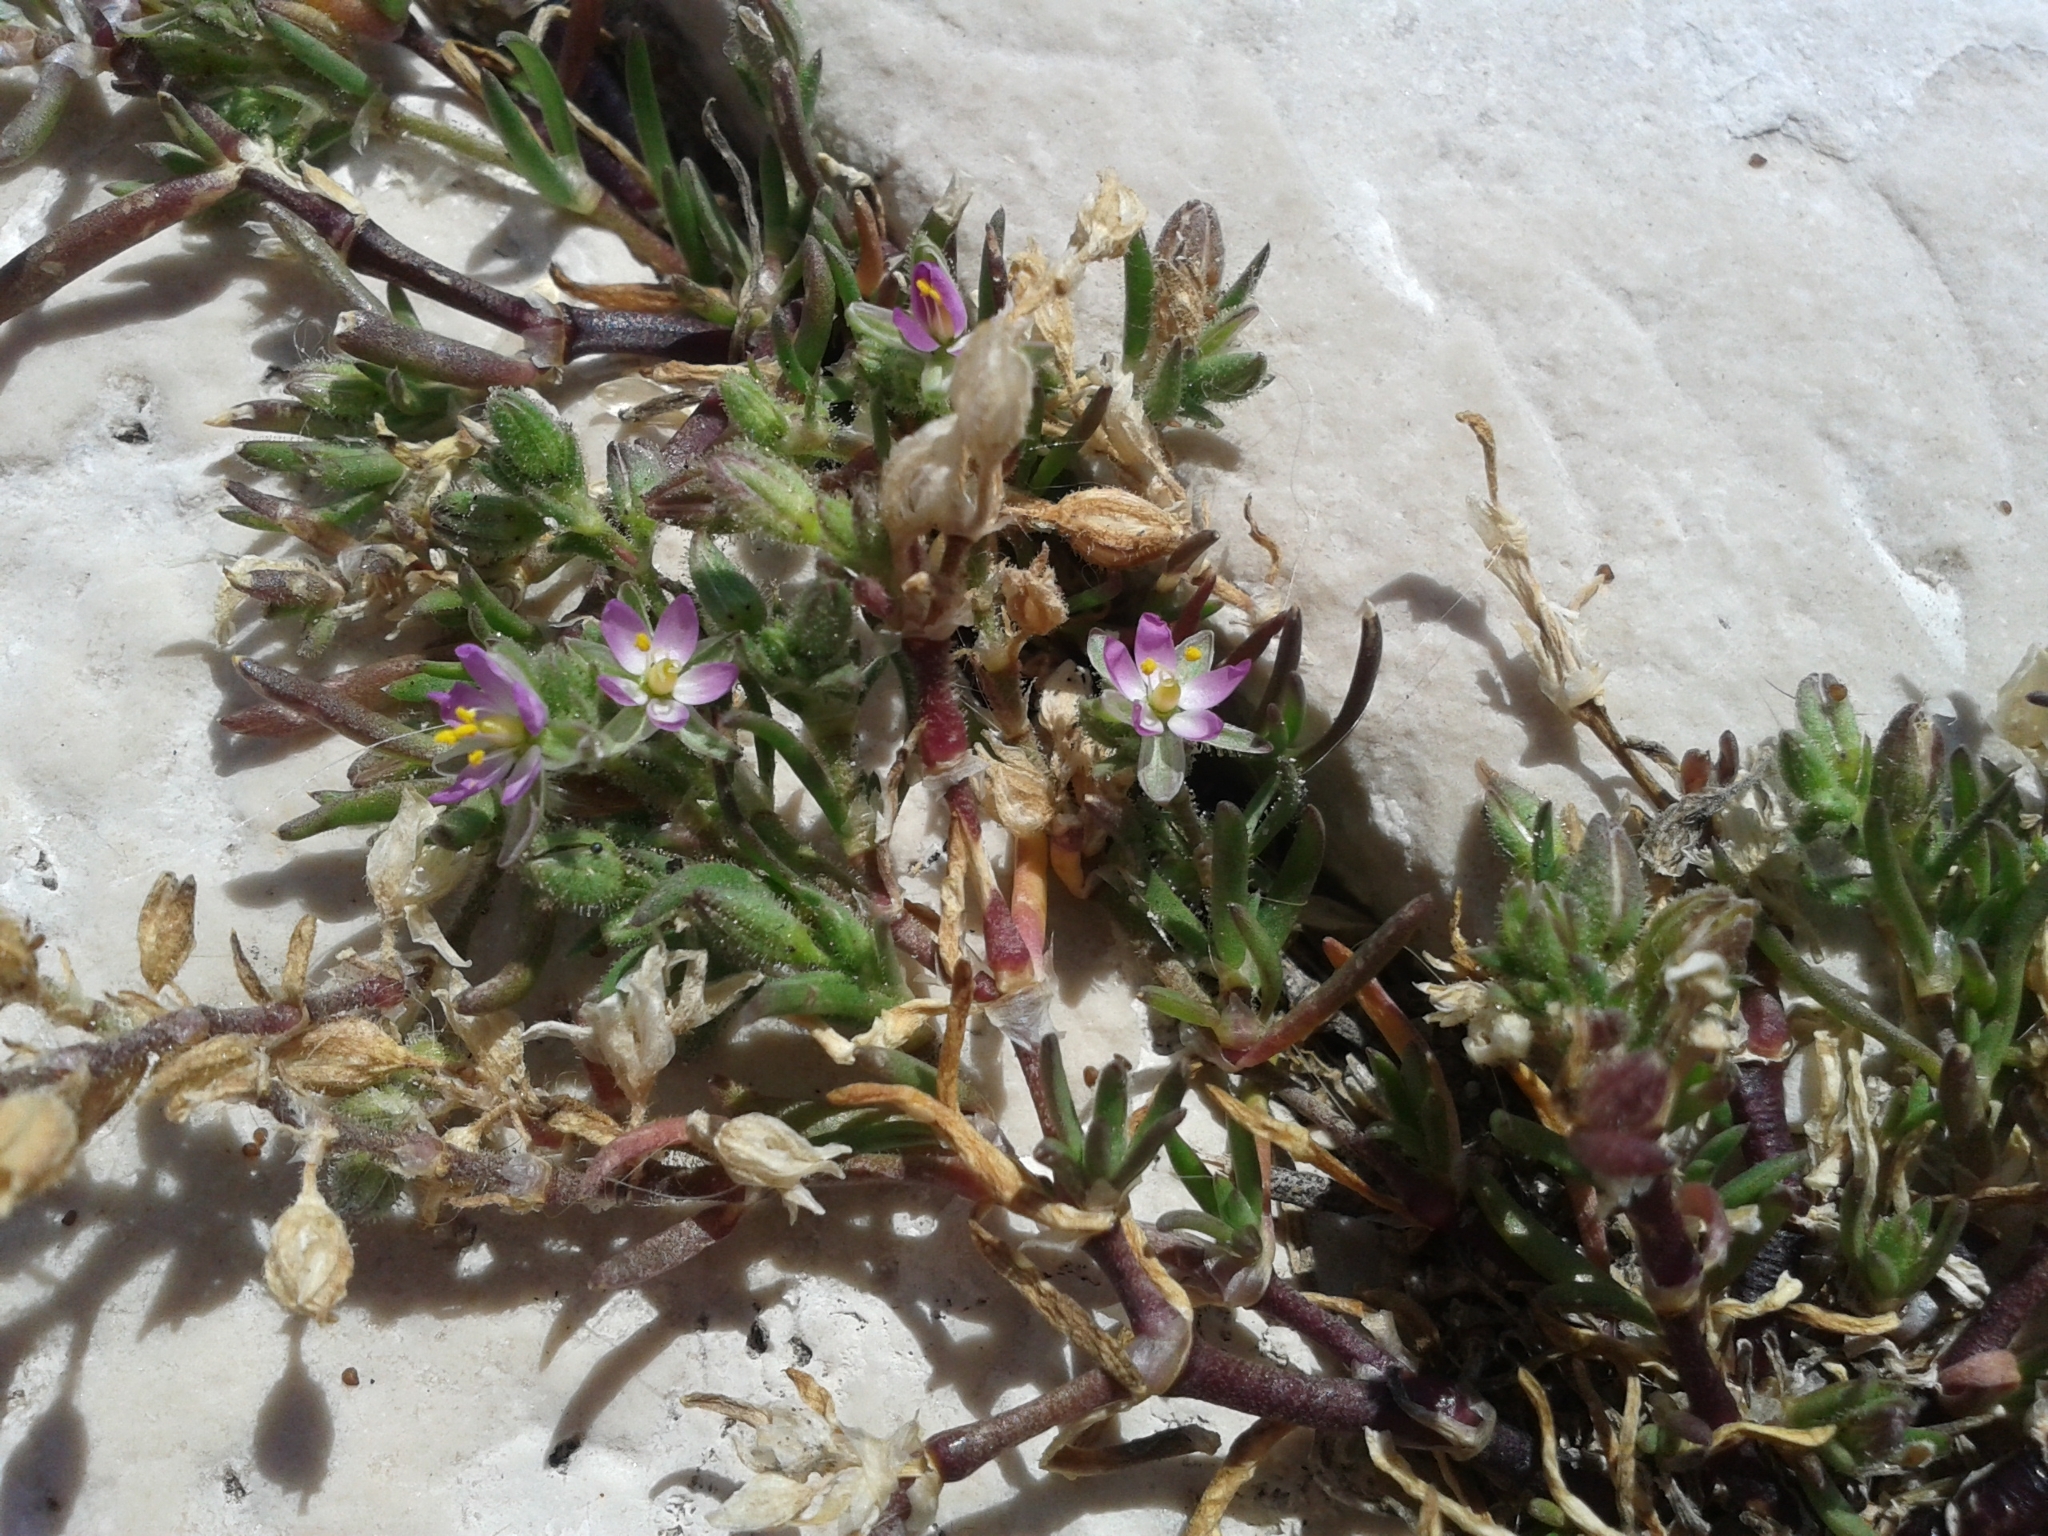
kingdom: Plantae
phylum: Tracheophyta
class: Magnoliopsida
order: Caryophyllales
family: Caryophyllaceae
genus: Spergularia
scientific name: Spergularia marina
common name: Lesser sea-spurrey
